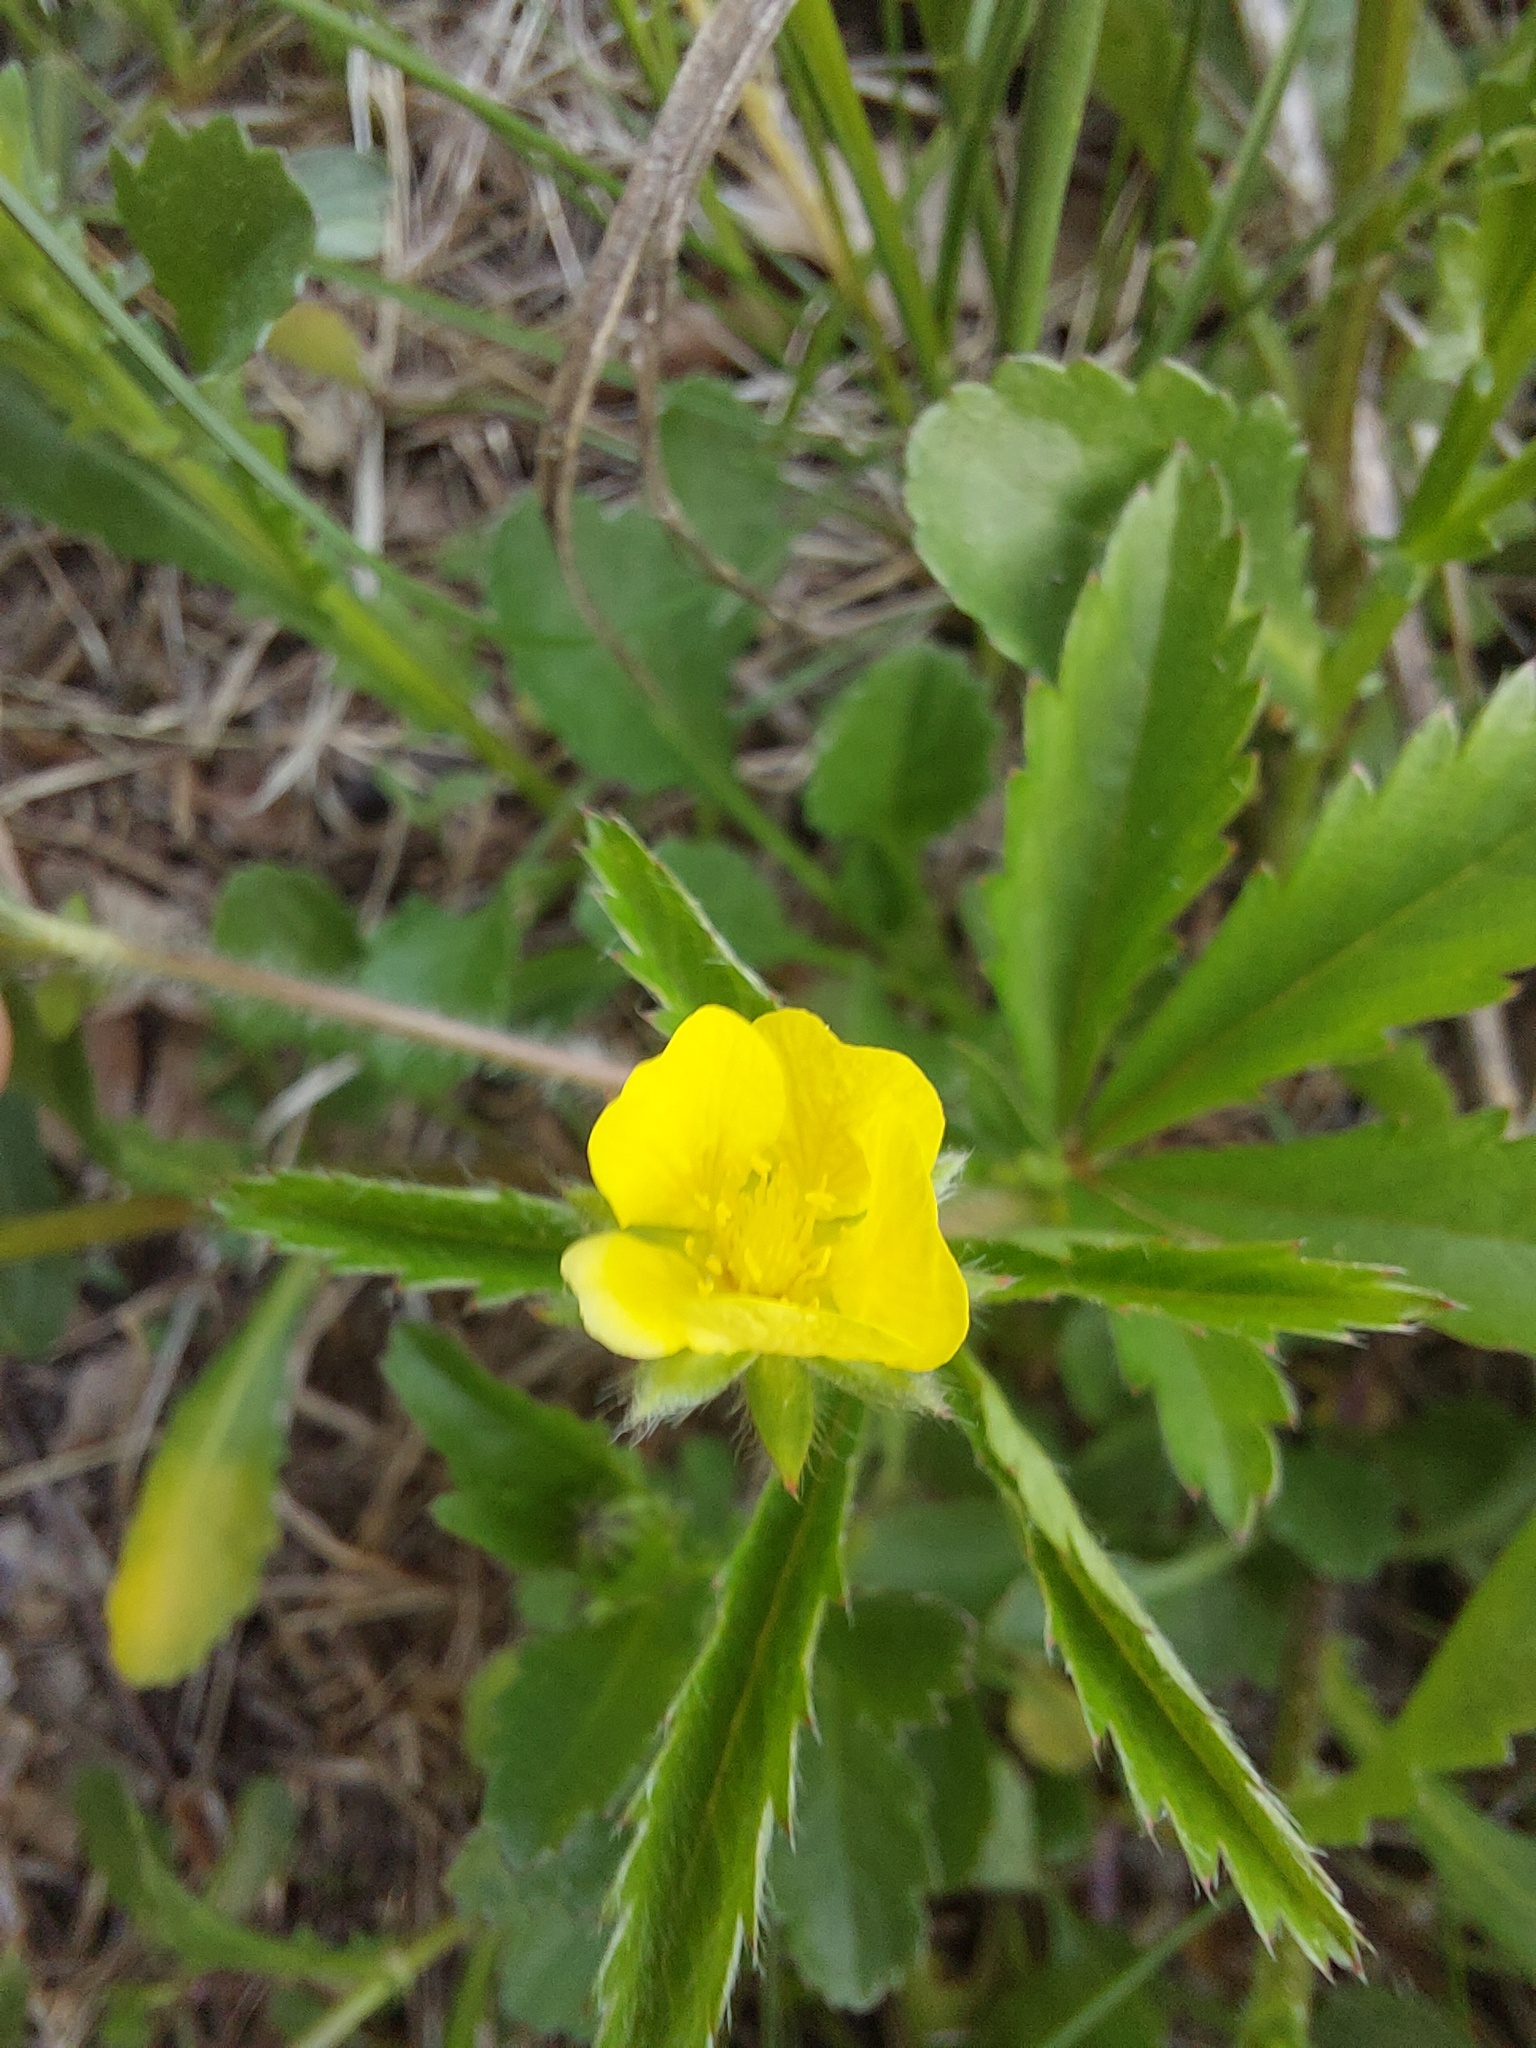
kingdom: Plantae
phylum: Tracheophyta
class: Magnoliopsida
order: Rosales
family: Rosaceae
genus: Potentilla
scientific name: Potentilla simplex
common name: Old field cinquefoil
